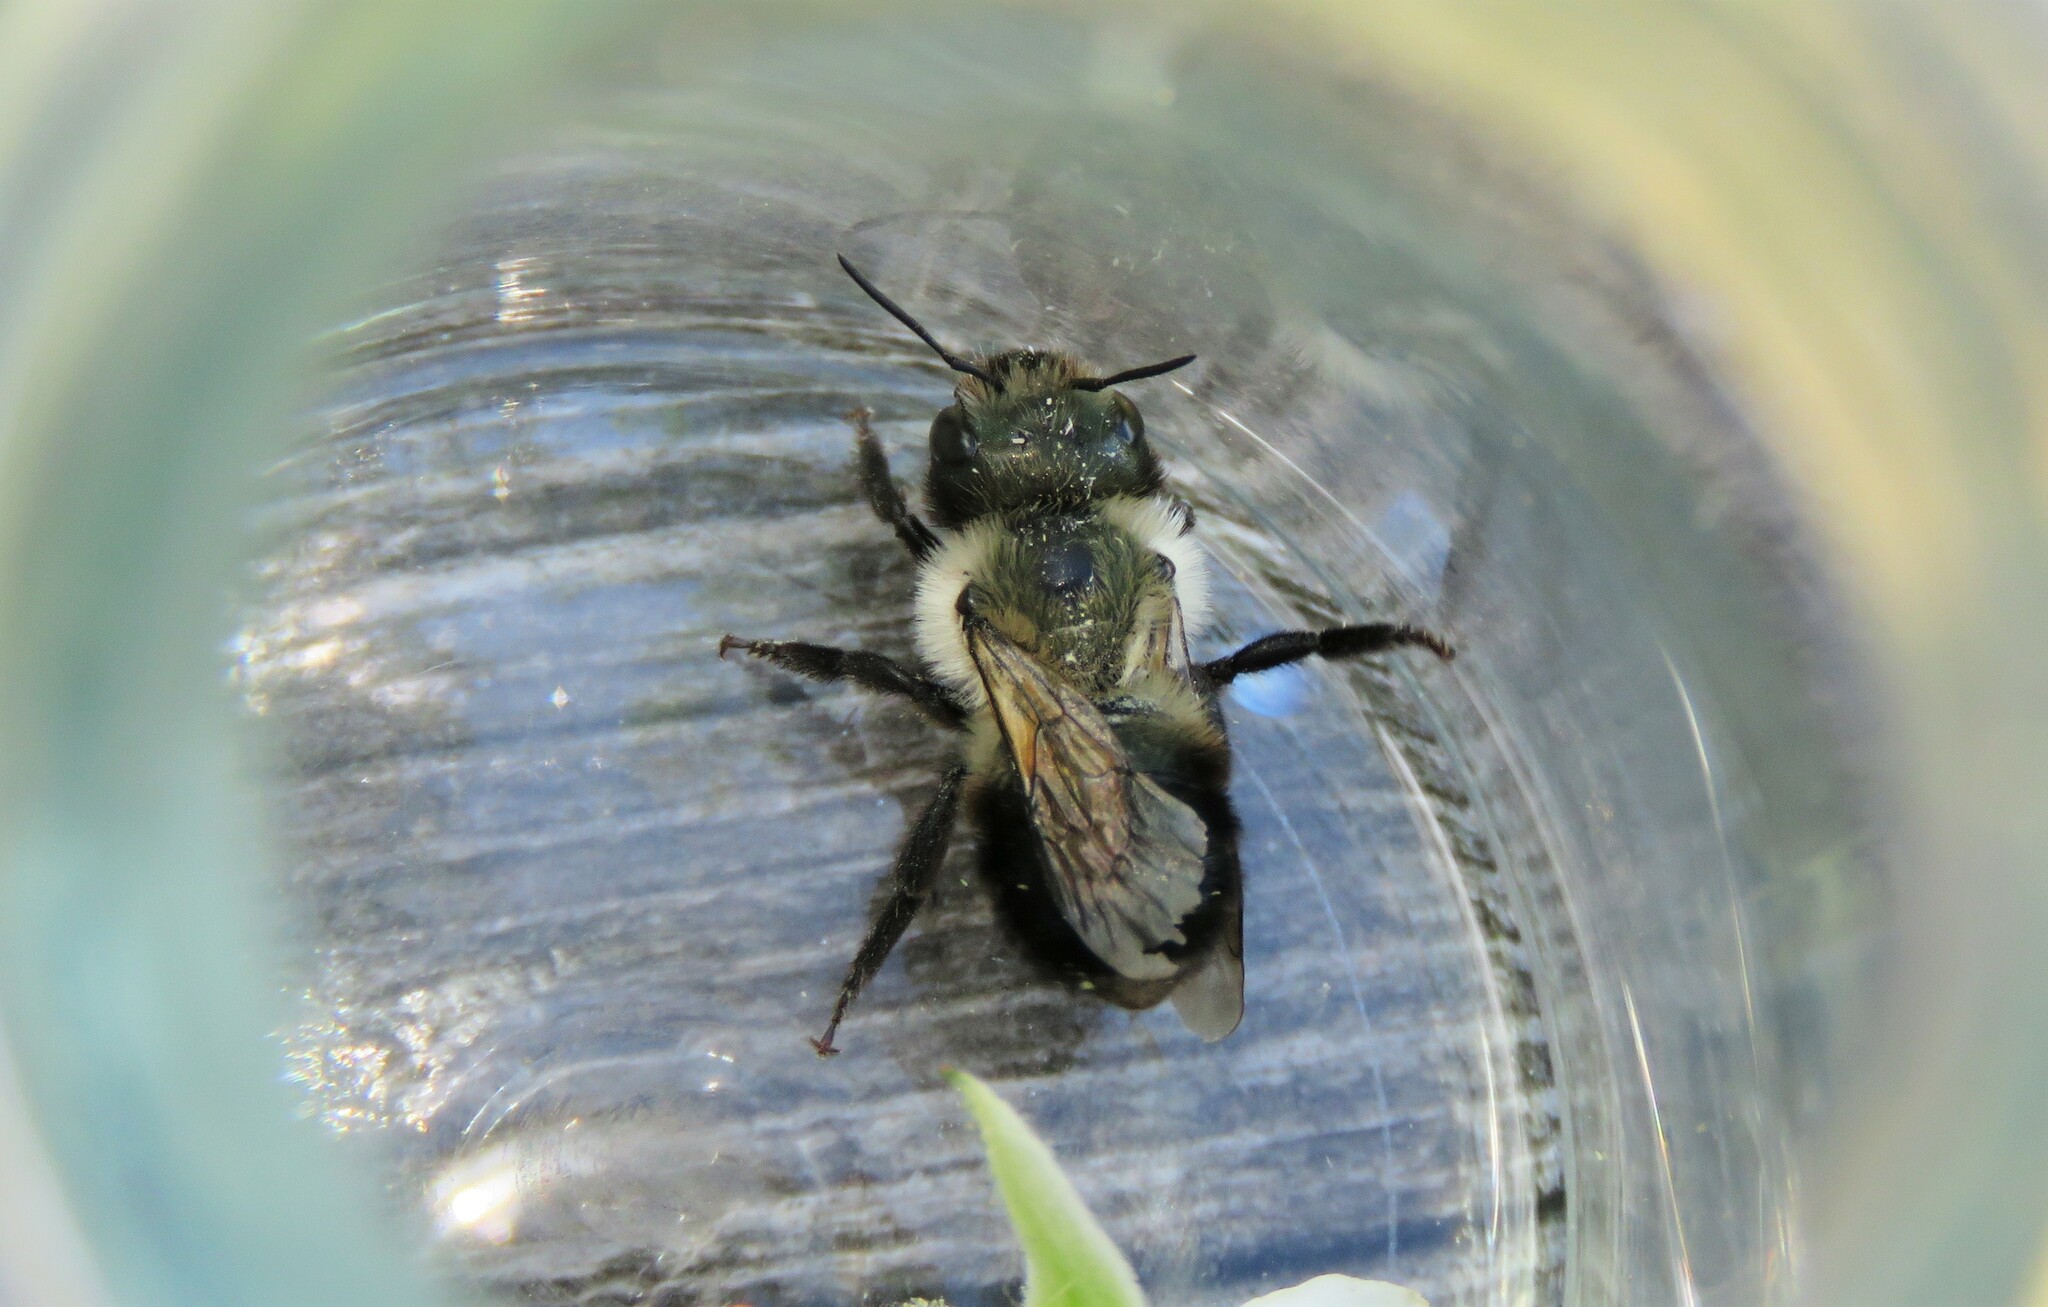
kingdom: Animalia
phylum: Arthropoda
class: Insecta
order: Hymenoptera
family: Megachilidae
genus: Osmia
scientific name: Osmia bucephala
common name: Bufflehead mason bee
